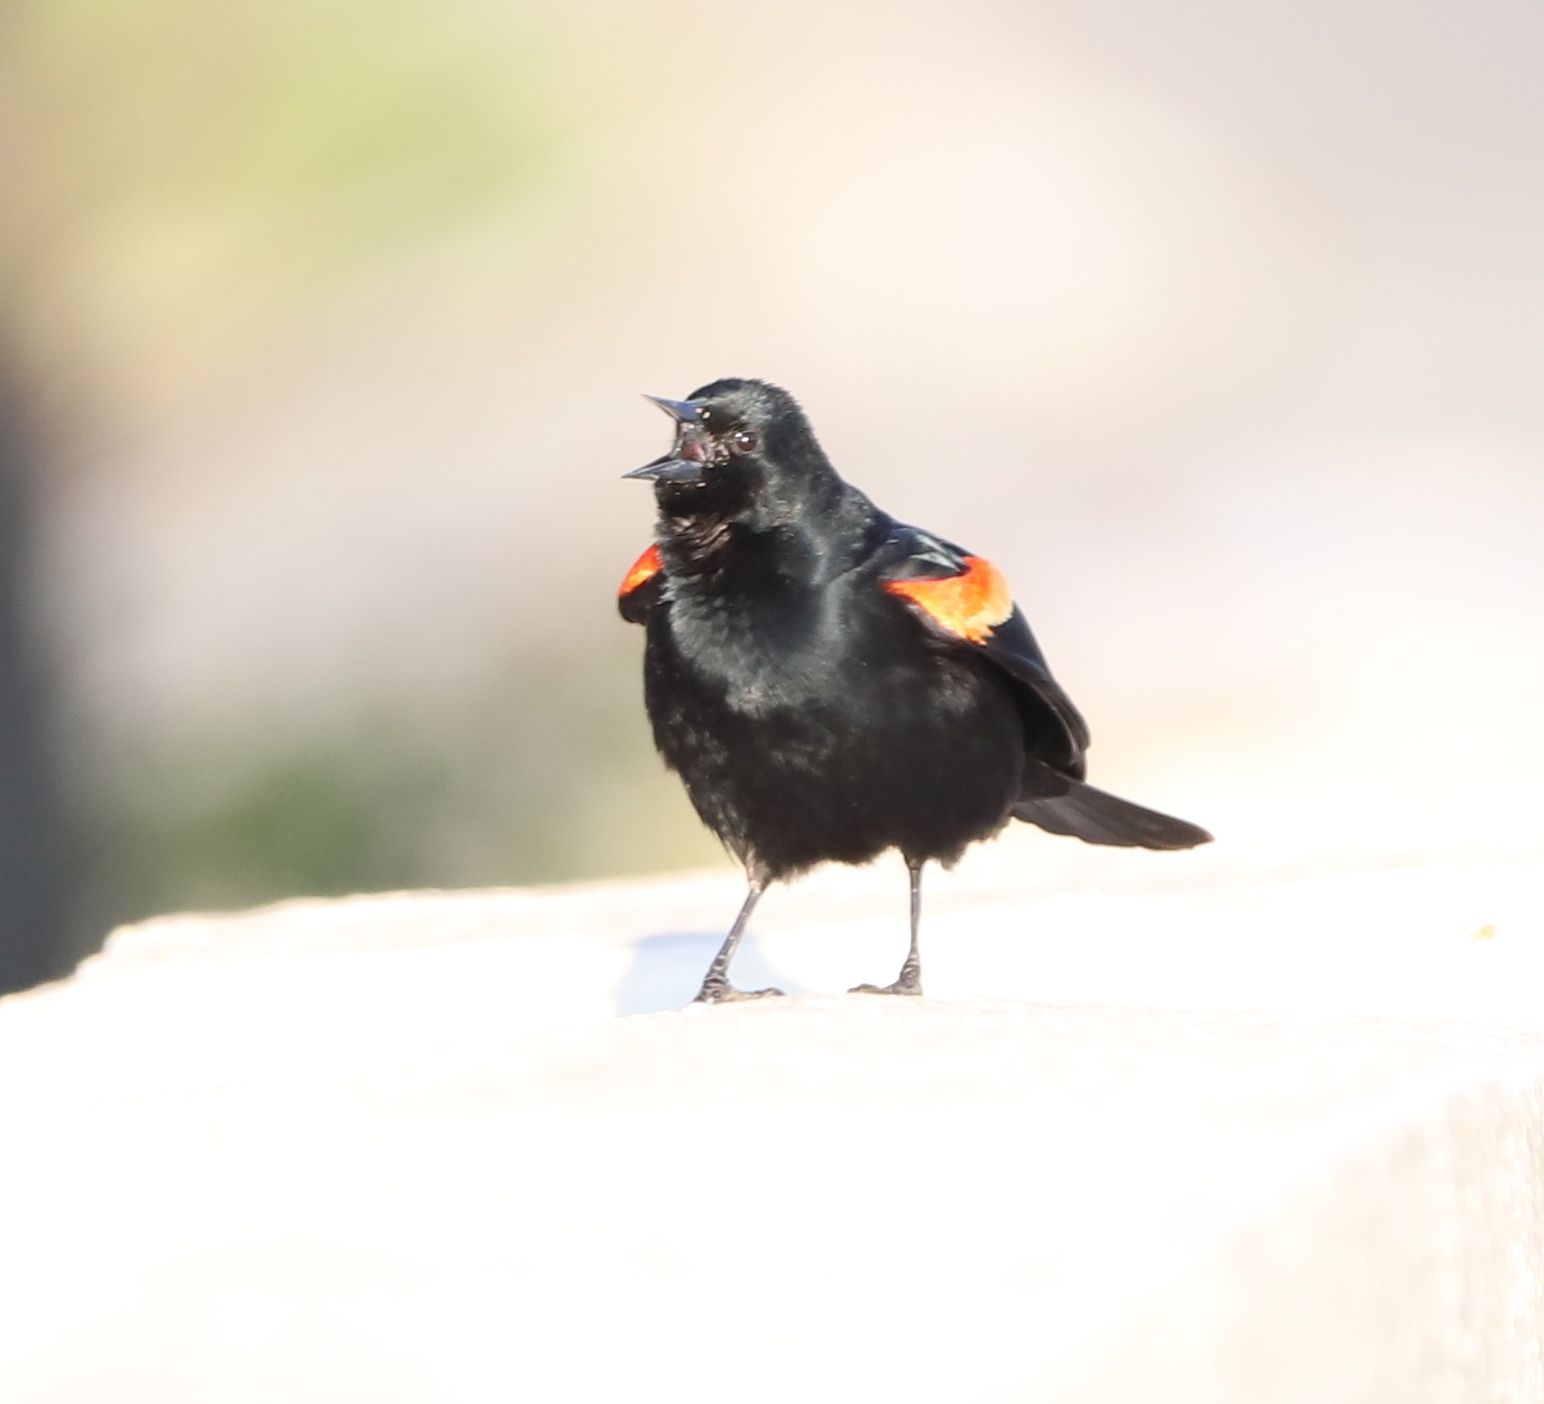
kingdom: Animalia
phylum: Chordata
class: Aves
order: Passeriformes
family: Icteridae
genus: Agelaius
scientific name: Agelaius phoeniceus
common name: Red-winged blackbird
